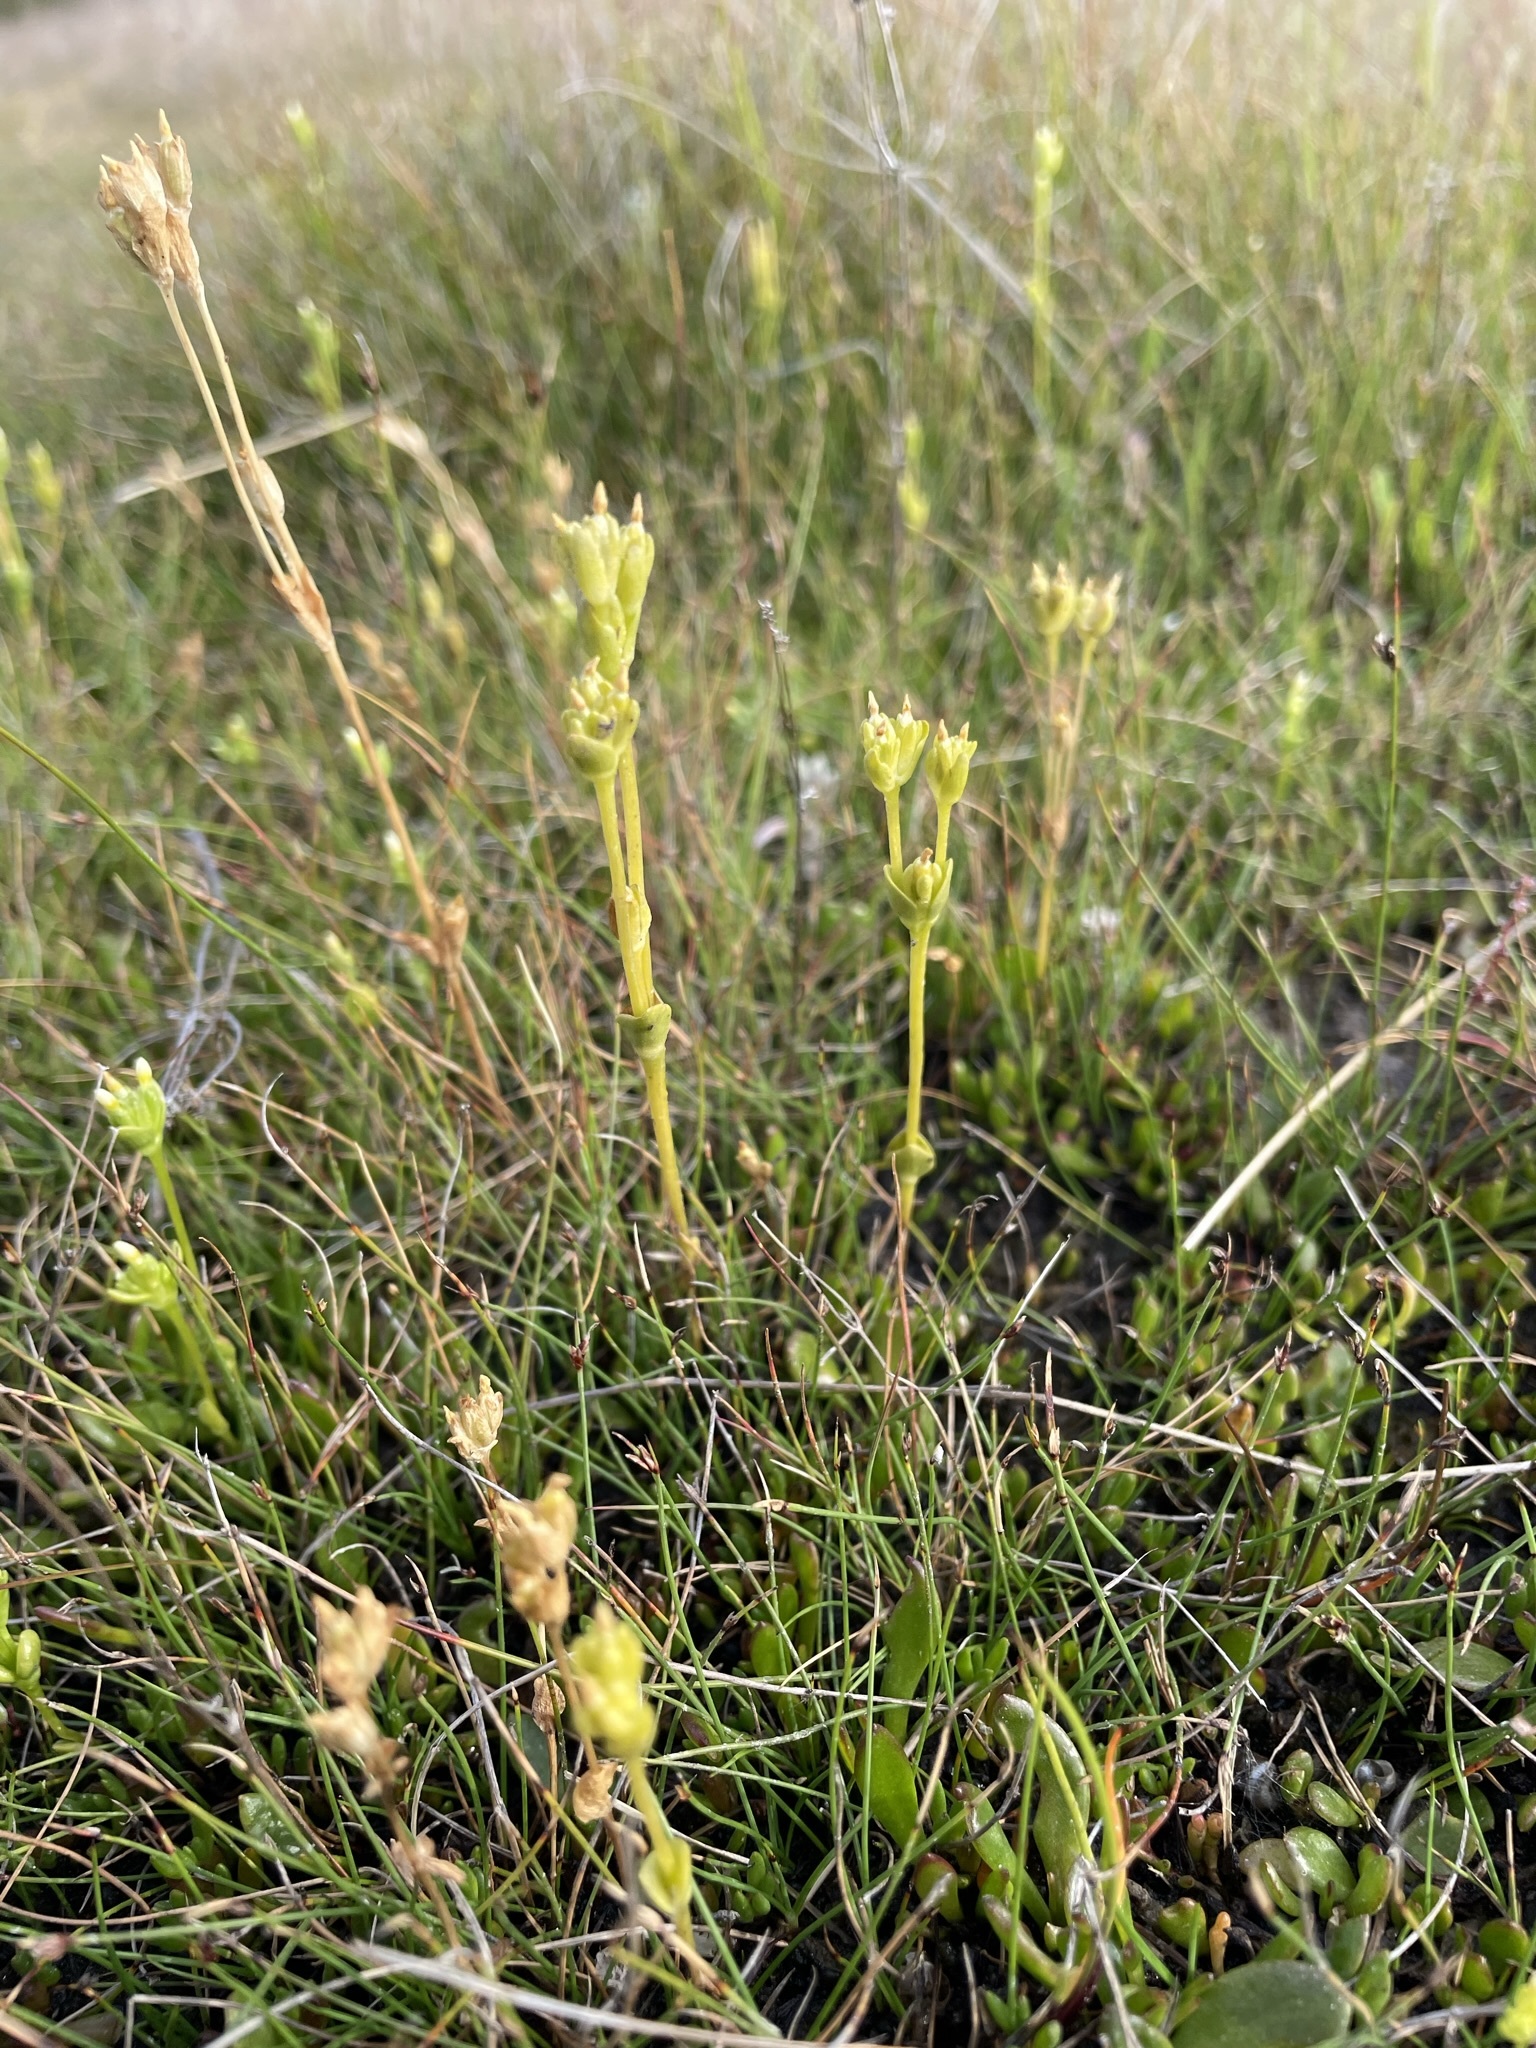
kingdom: Plantae
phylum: Tracheophyta
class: Magnoliopsida
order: Gentianales
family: Gentianaceae
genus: Sebaea
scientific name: Sebaea albidiflora
